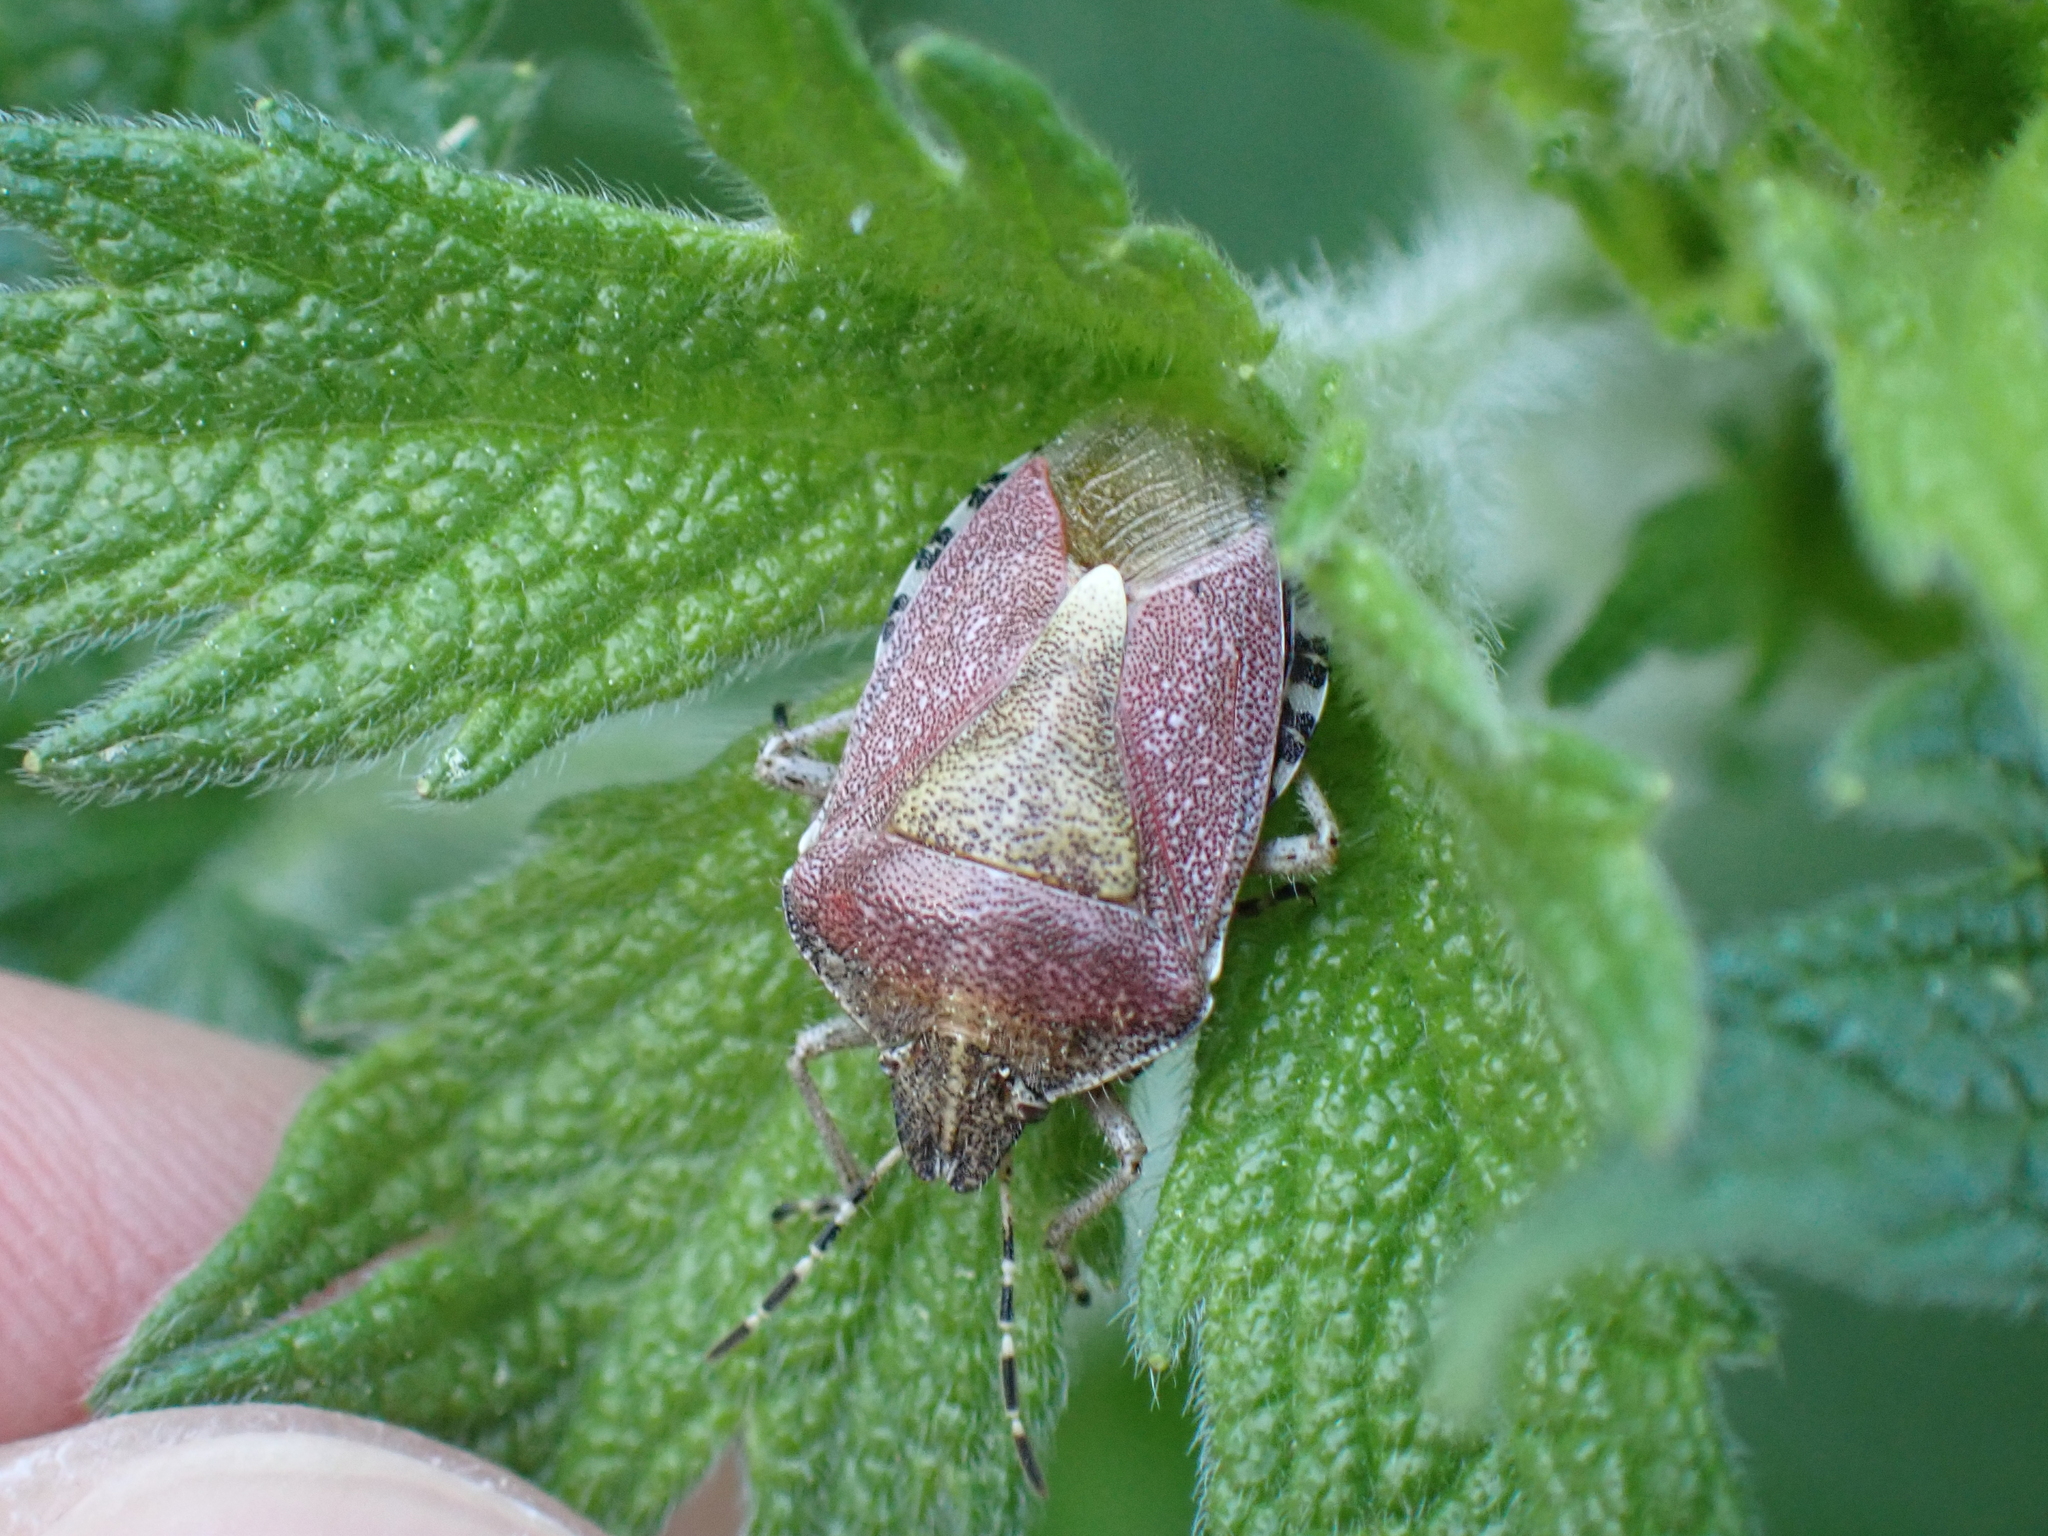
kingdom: Animalia
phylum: Arthropoda
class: Insecta
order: Hemiptera
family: Pentatomidae
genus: Dolycoris
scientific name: Dolycoris baccarum
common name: Sloe bug
